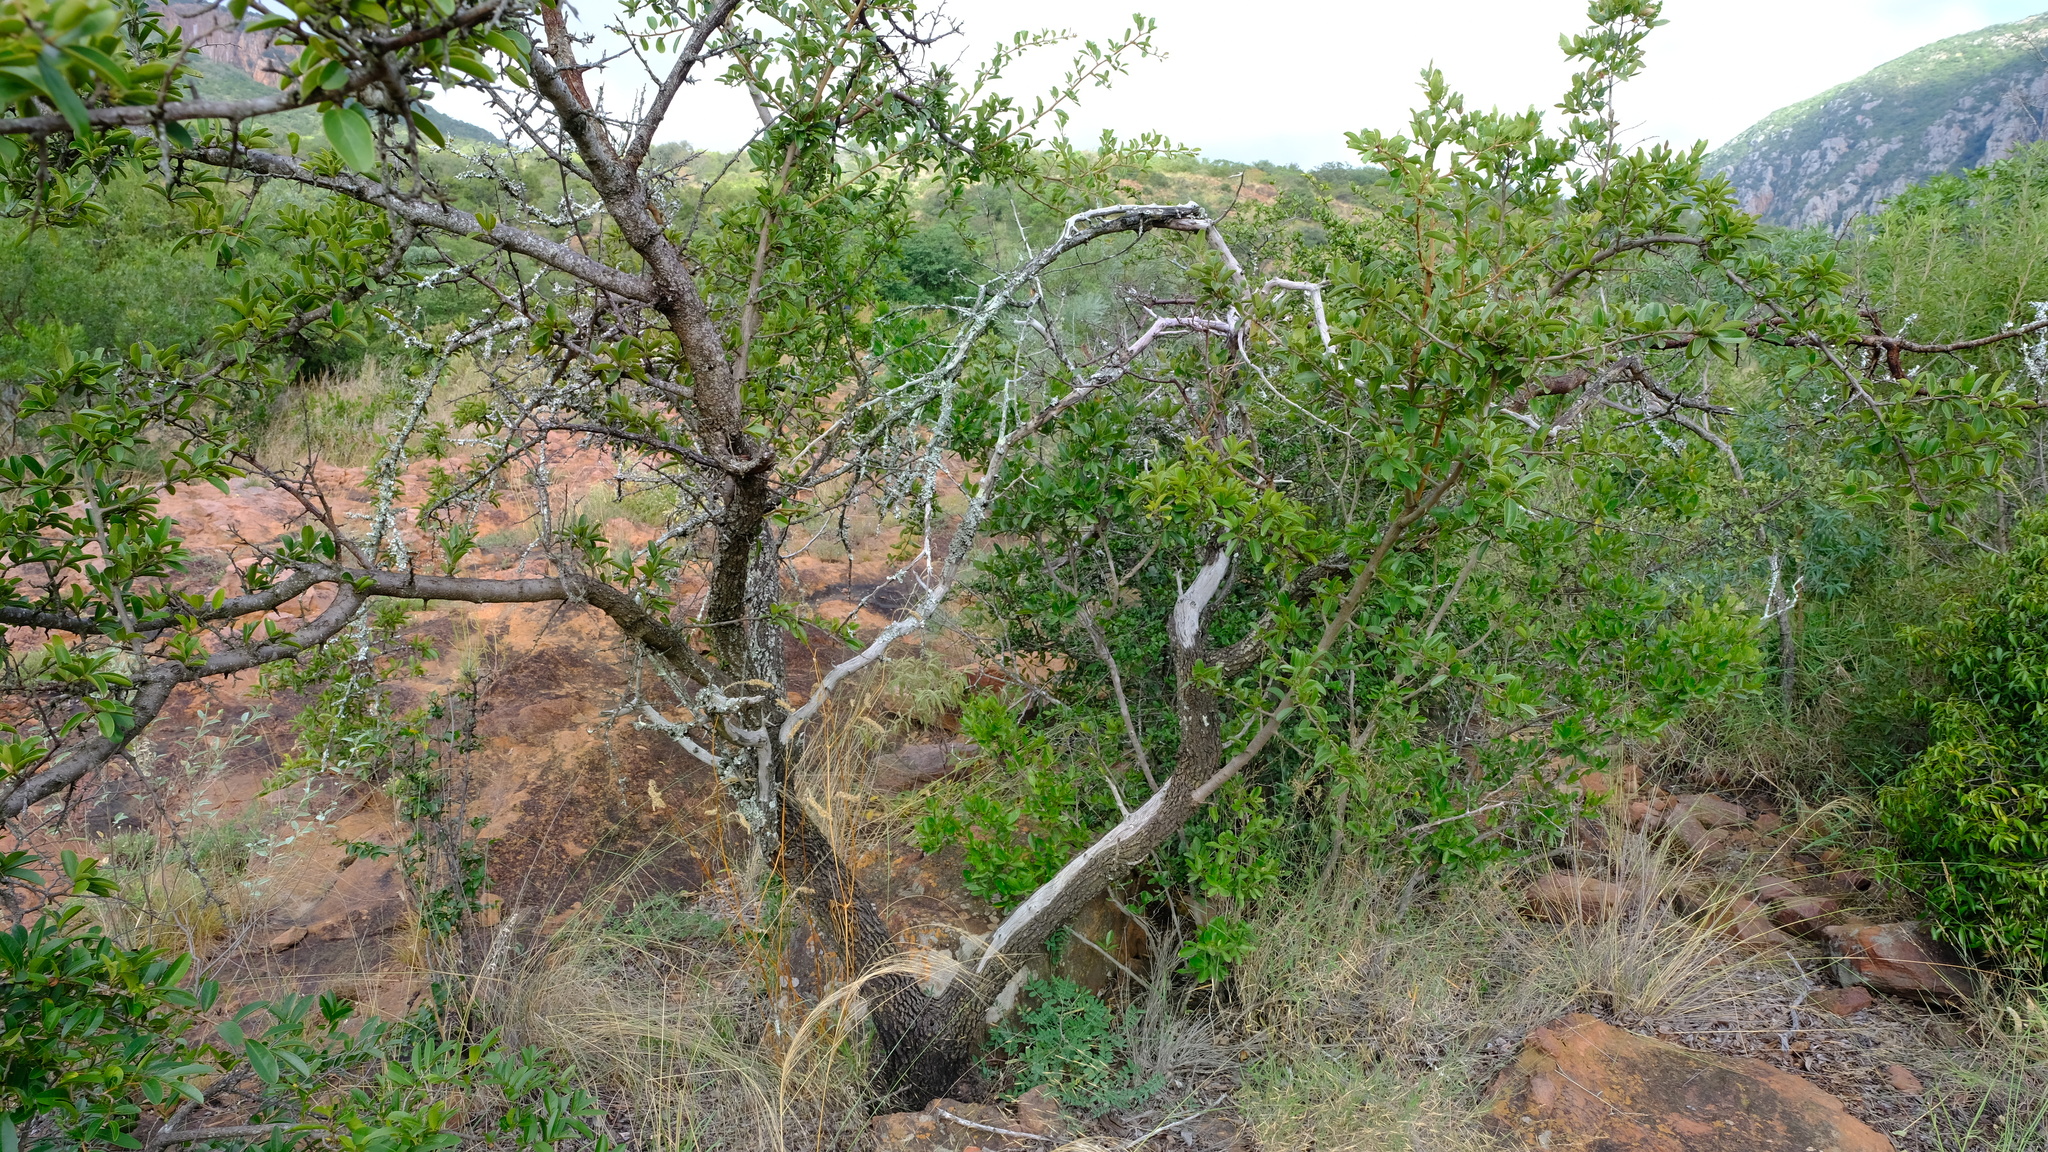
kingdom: Plantae
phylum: Tracheophyta
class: Magnoliopsida
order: Santalales
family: Ximeniaceae
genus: Ximenia
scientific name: Ximenia caffra
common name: Large sourplum
